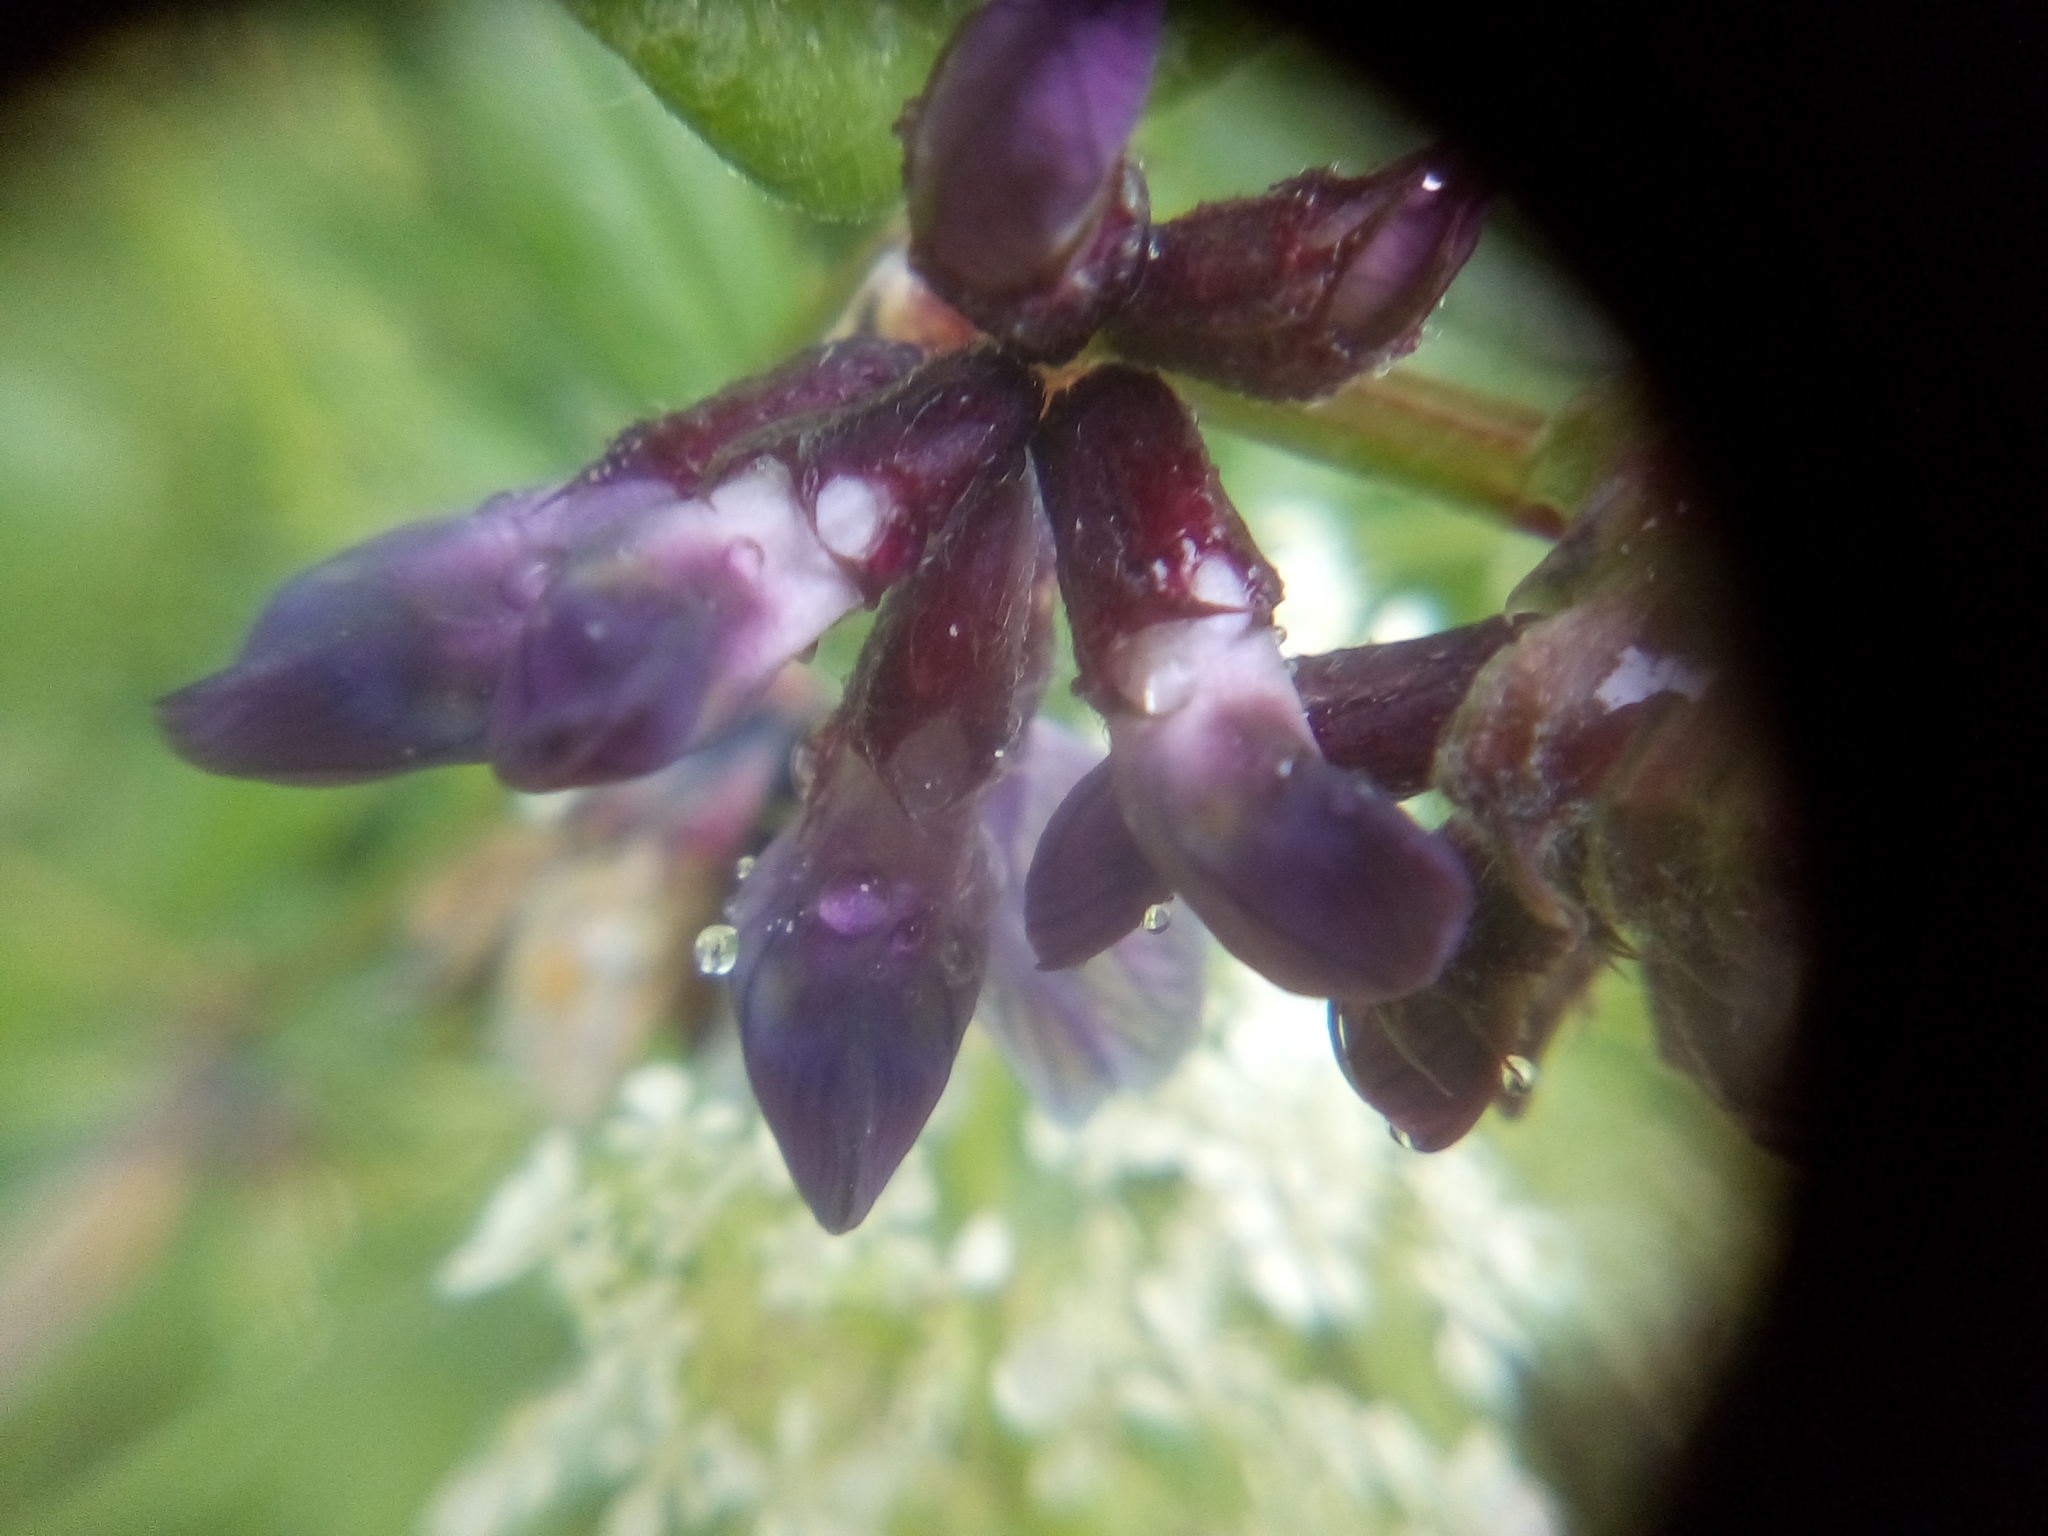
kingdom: Plantae
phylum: Tracheophyta
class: Magnoliopsida
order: Fabales
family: Fabaceae
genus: Vicia
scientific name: Vicia sepium
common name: Bush vetch
